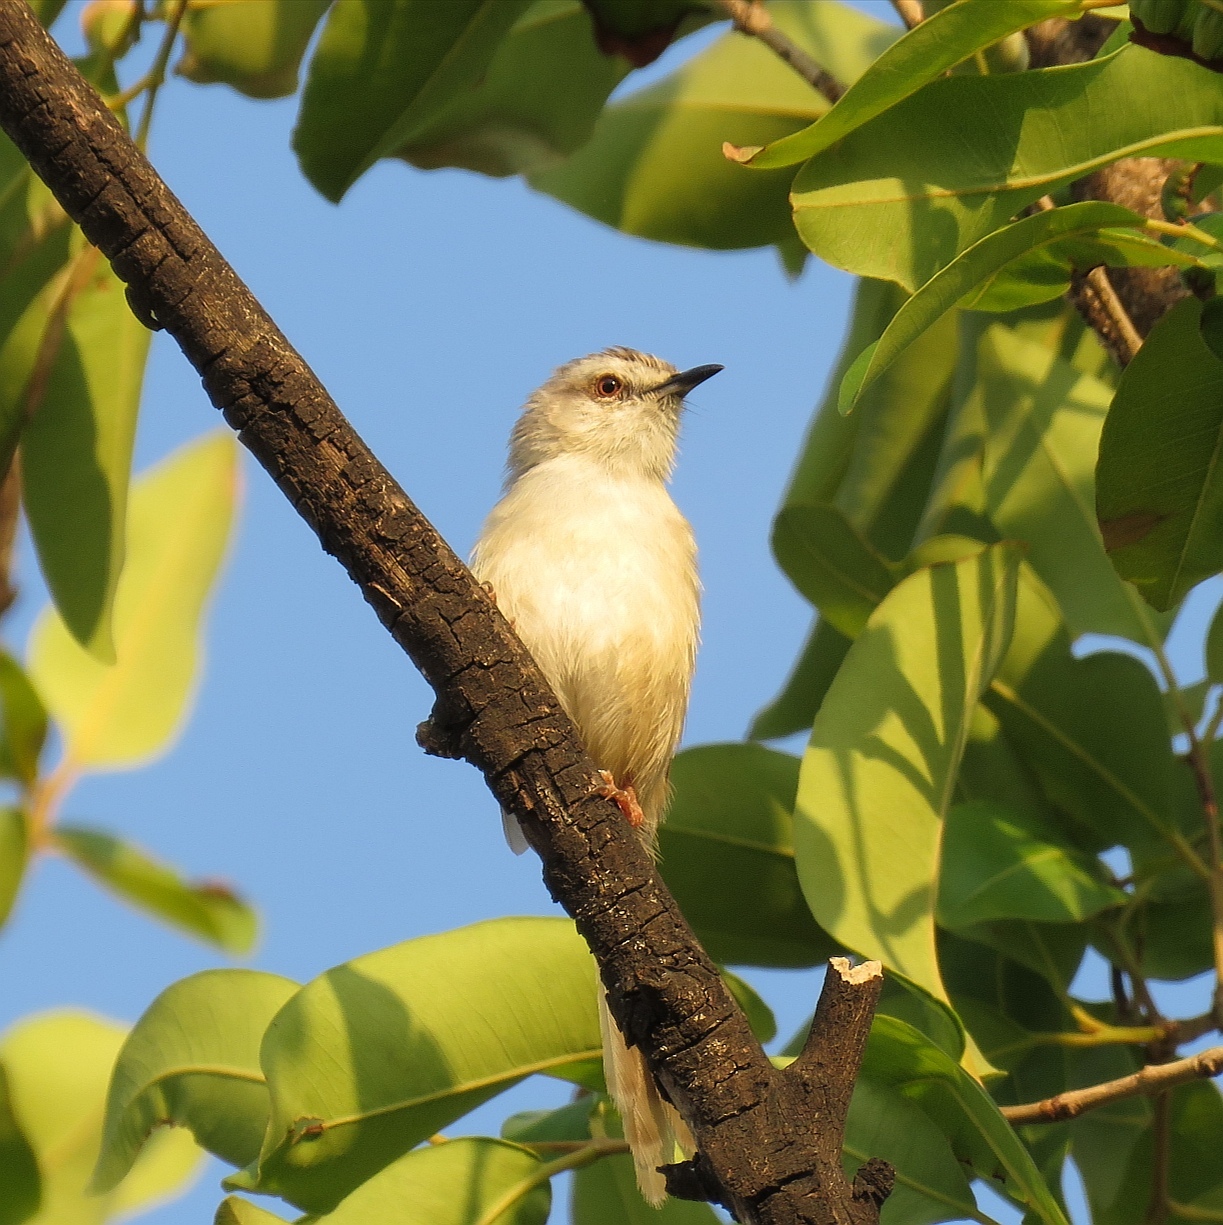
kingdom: Animalia
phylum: Chordata
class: Aves
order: Passeriformes
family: Cisticolidae
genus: Prinia
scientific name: Prinia subflava
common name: Tawny-flanked prinia
